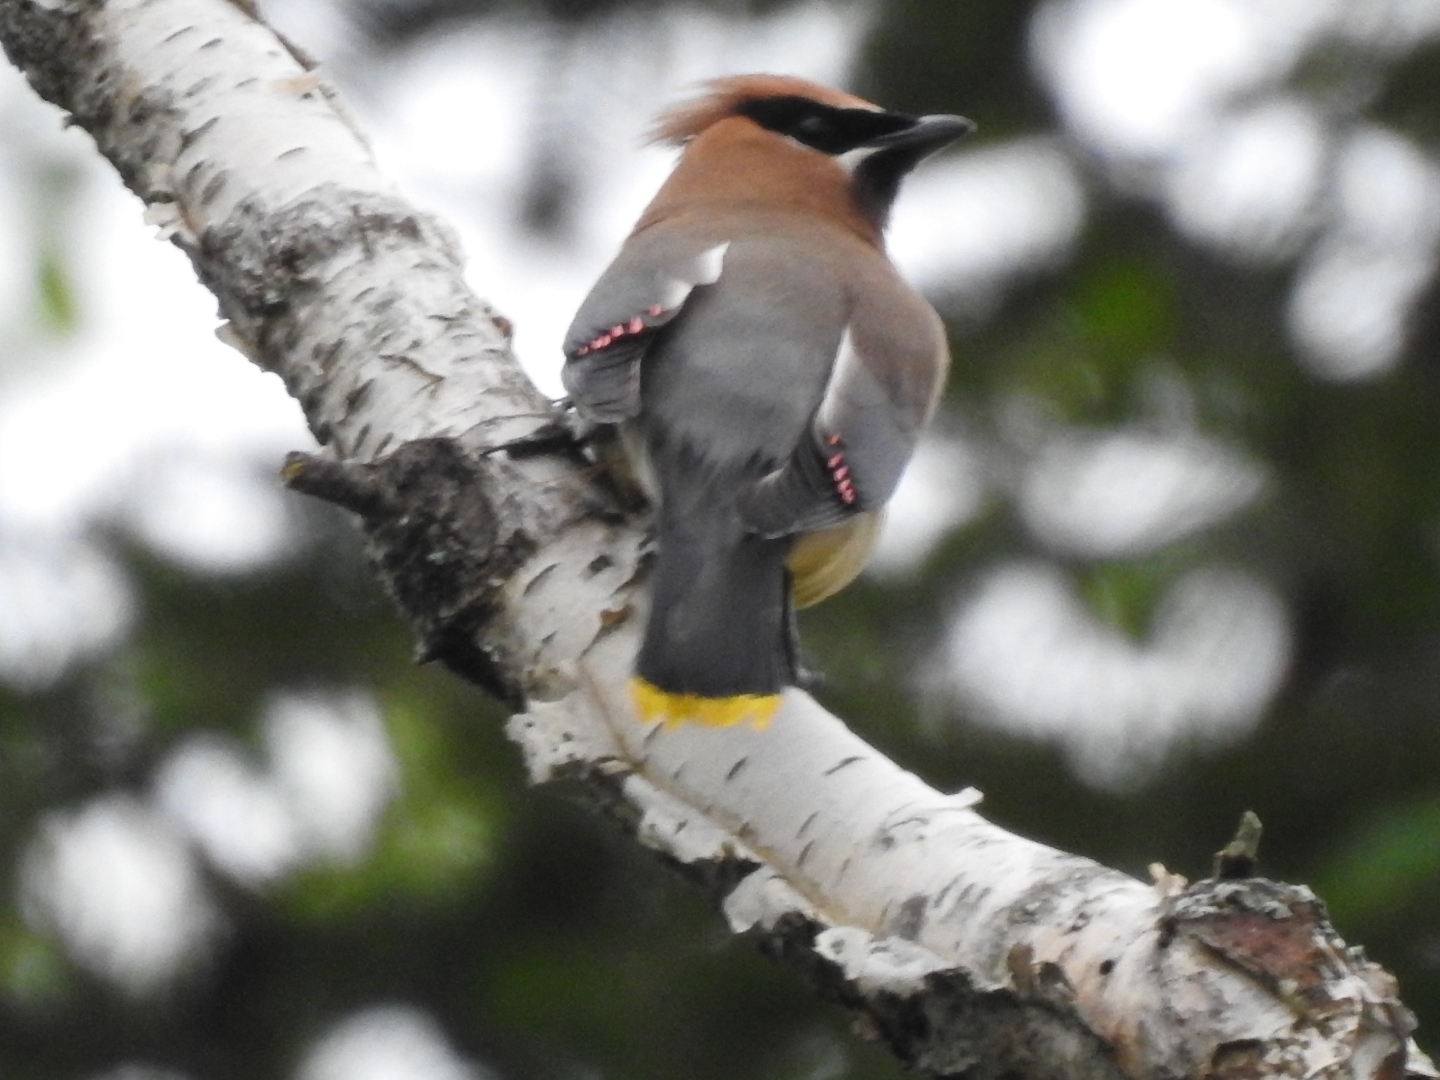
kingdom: Animalia
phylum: Chordata
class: Aves
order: Passeriformes
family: Bombycillidae
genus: Bombycilla
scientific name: Bombycilla cedrorum
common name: Cedar waxwing
